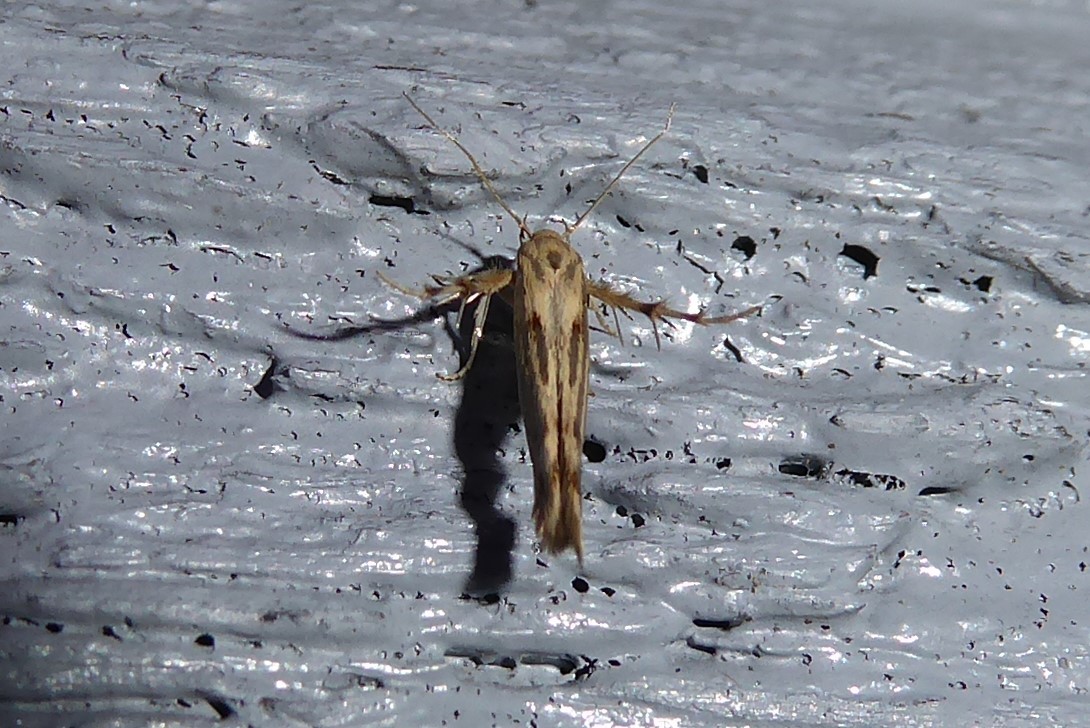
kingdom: Animalia
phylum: Arthropoda
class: Insecta
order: Lepidoptera
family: Stathmopodidae
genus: Stathmopoda
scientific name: Stathmopoda plumbiflua
